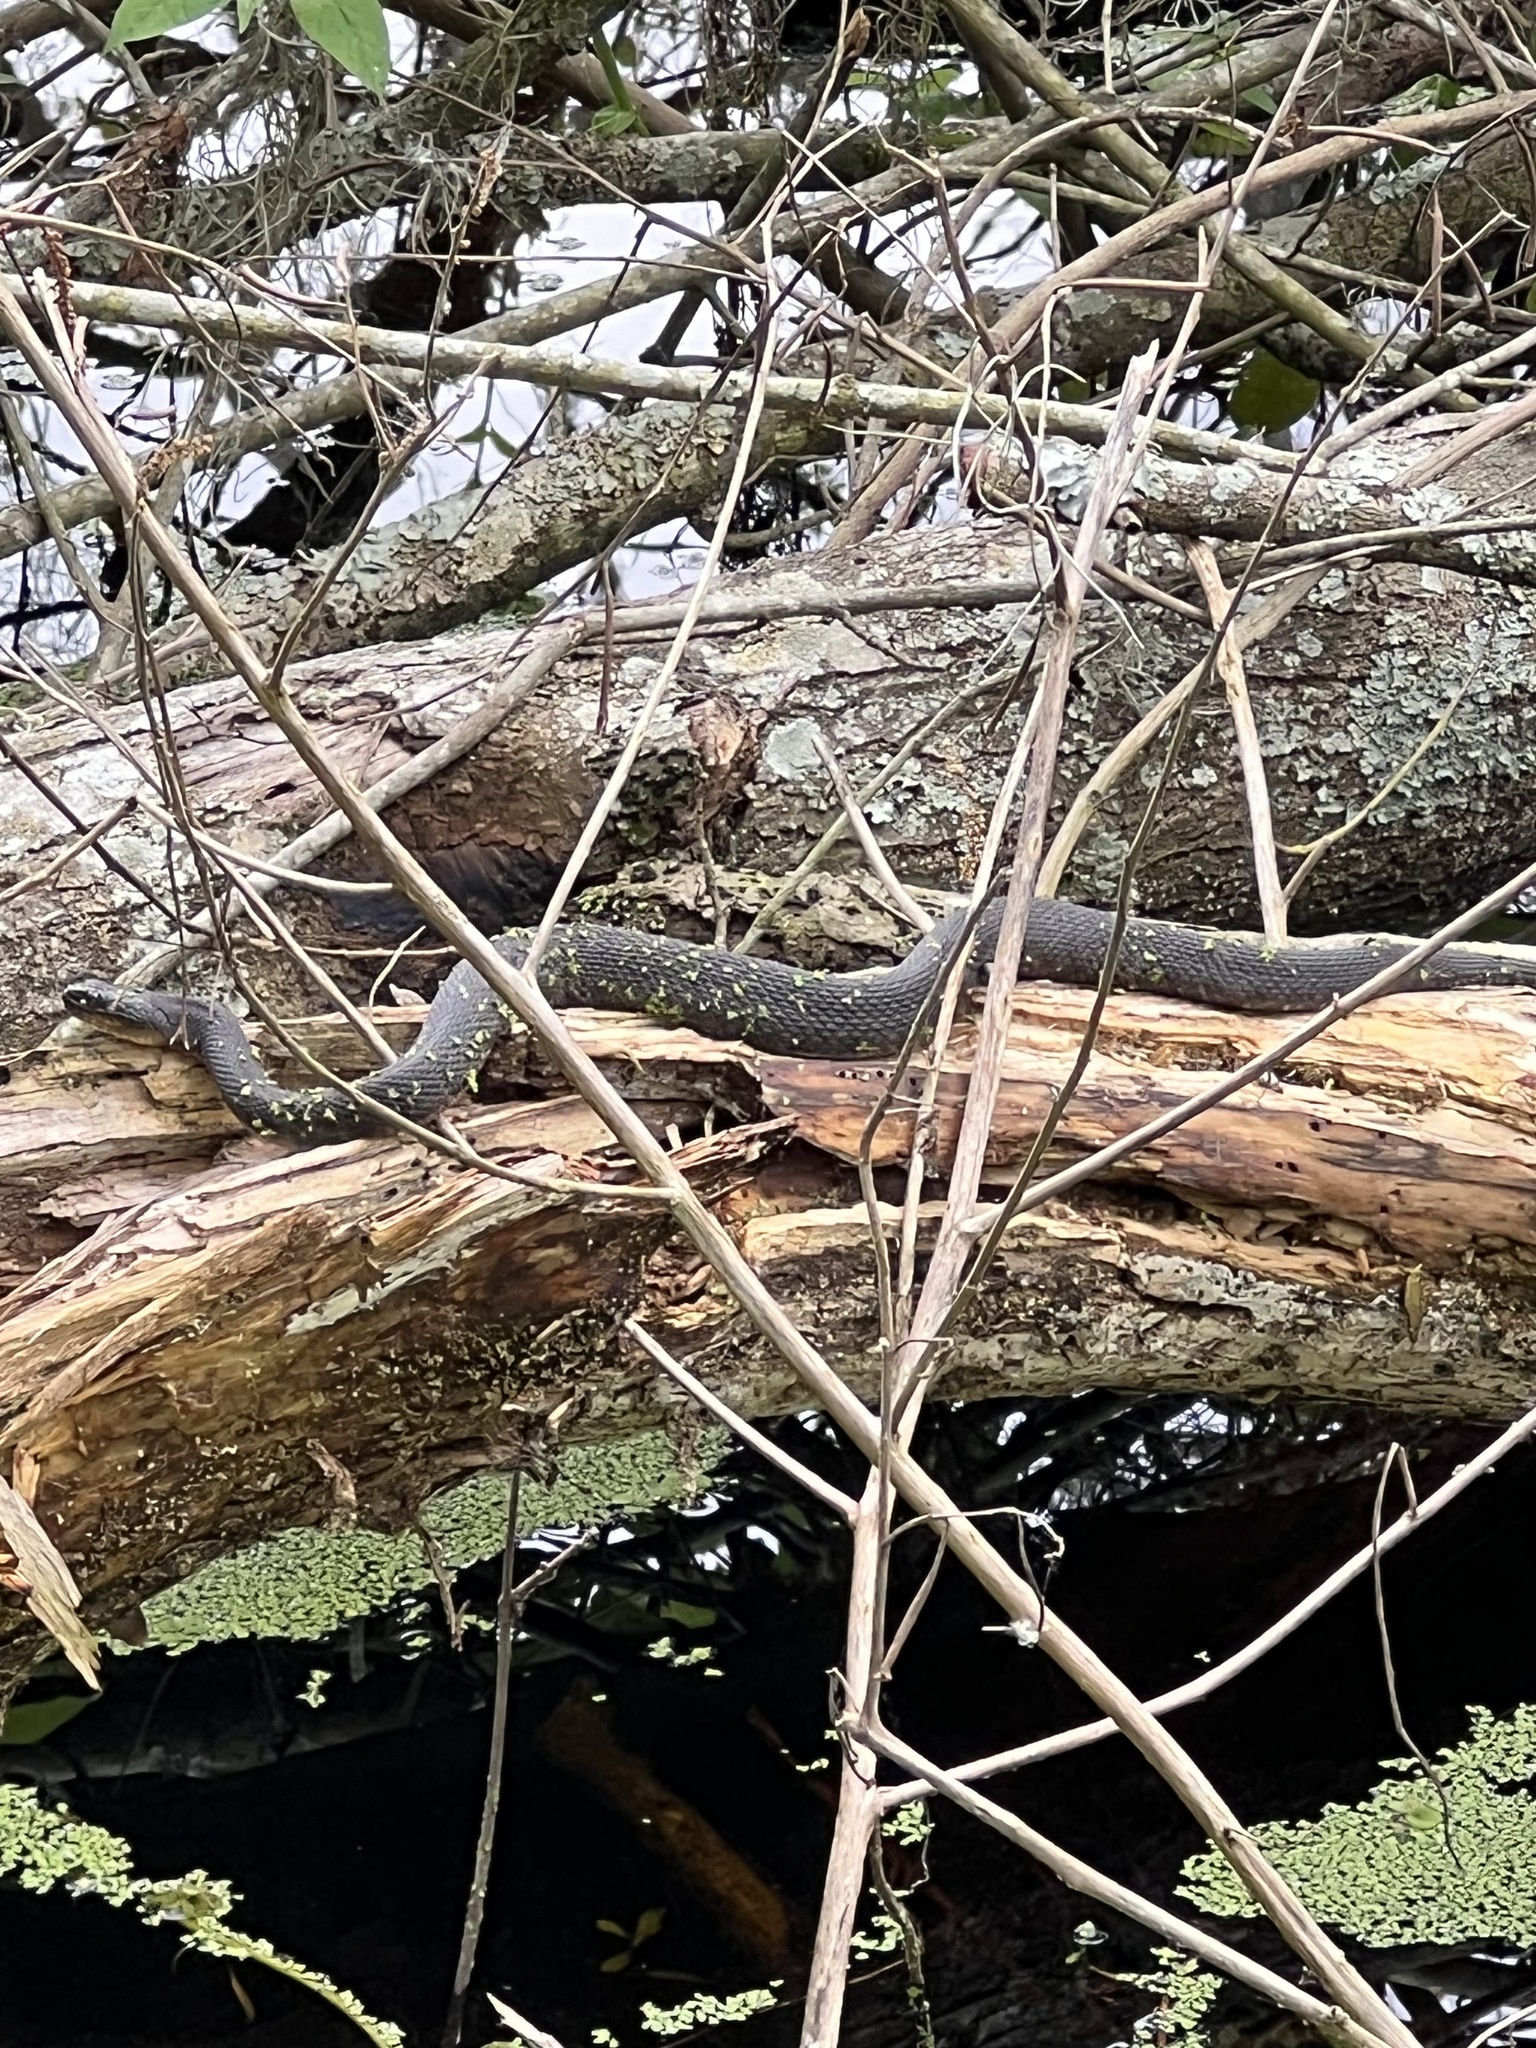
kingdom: Animalia
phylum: Chordata
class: Squamata
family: Colubridae
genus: Nerodia
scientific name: Nerodia cyclopion
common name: Mississippi green water snake
